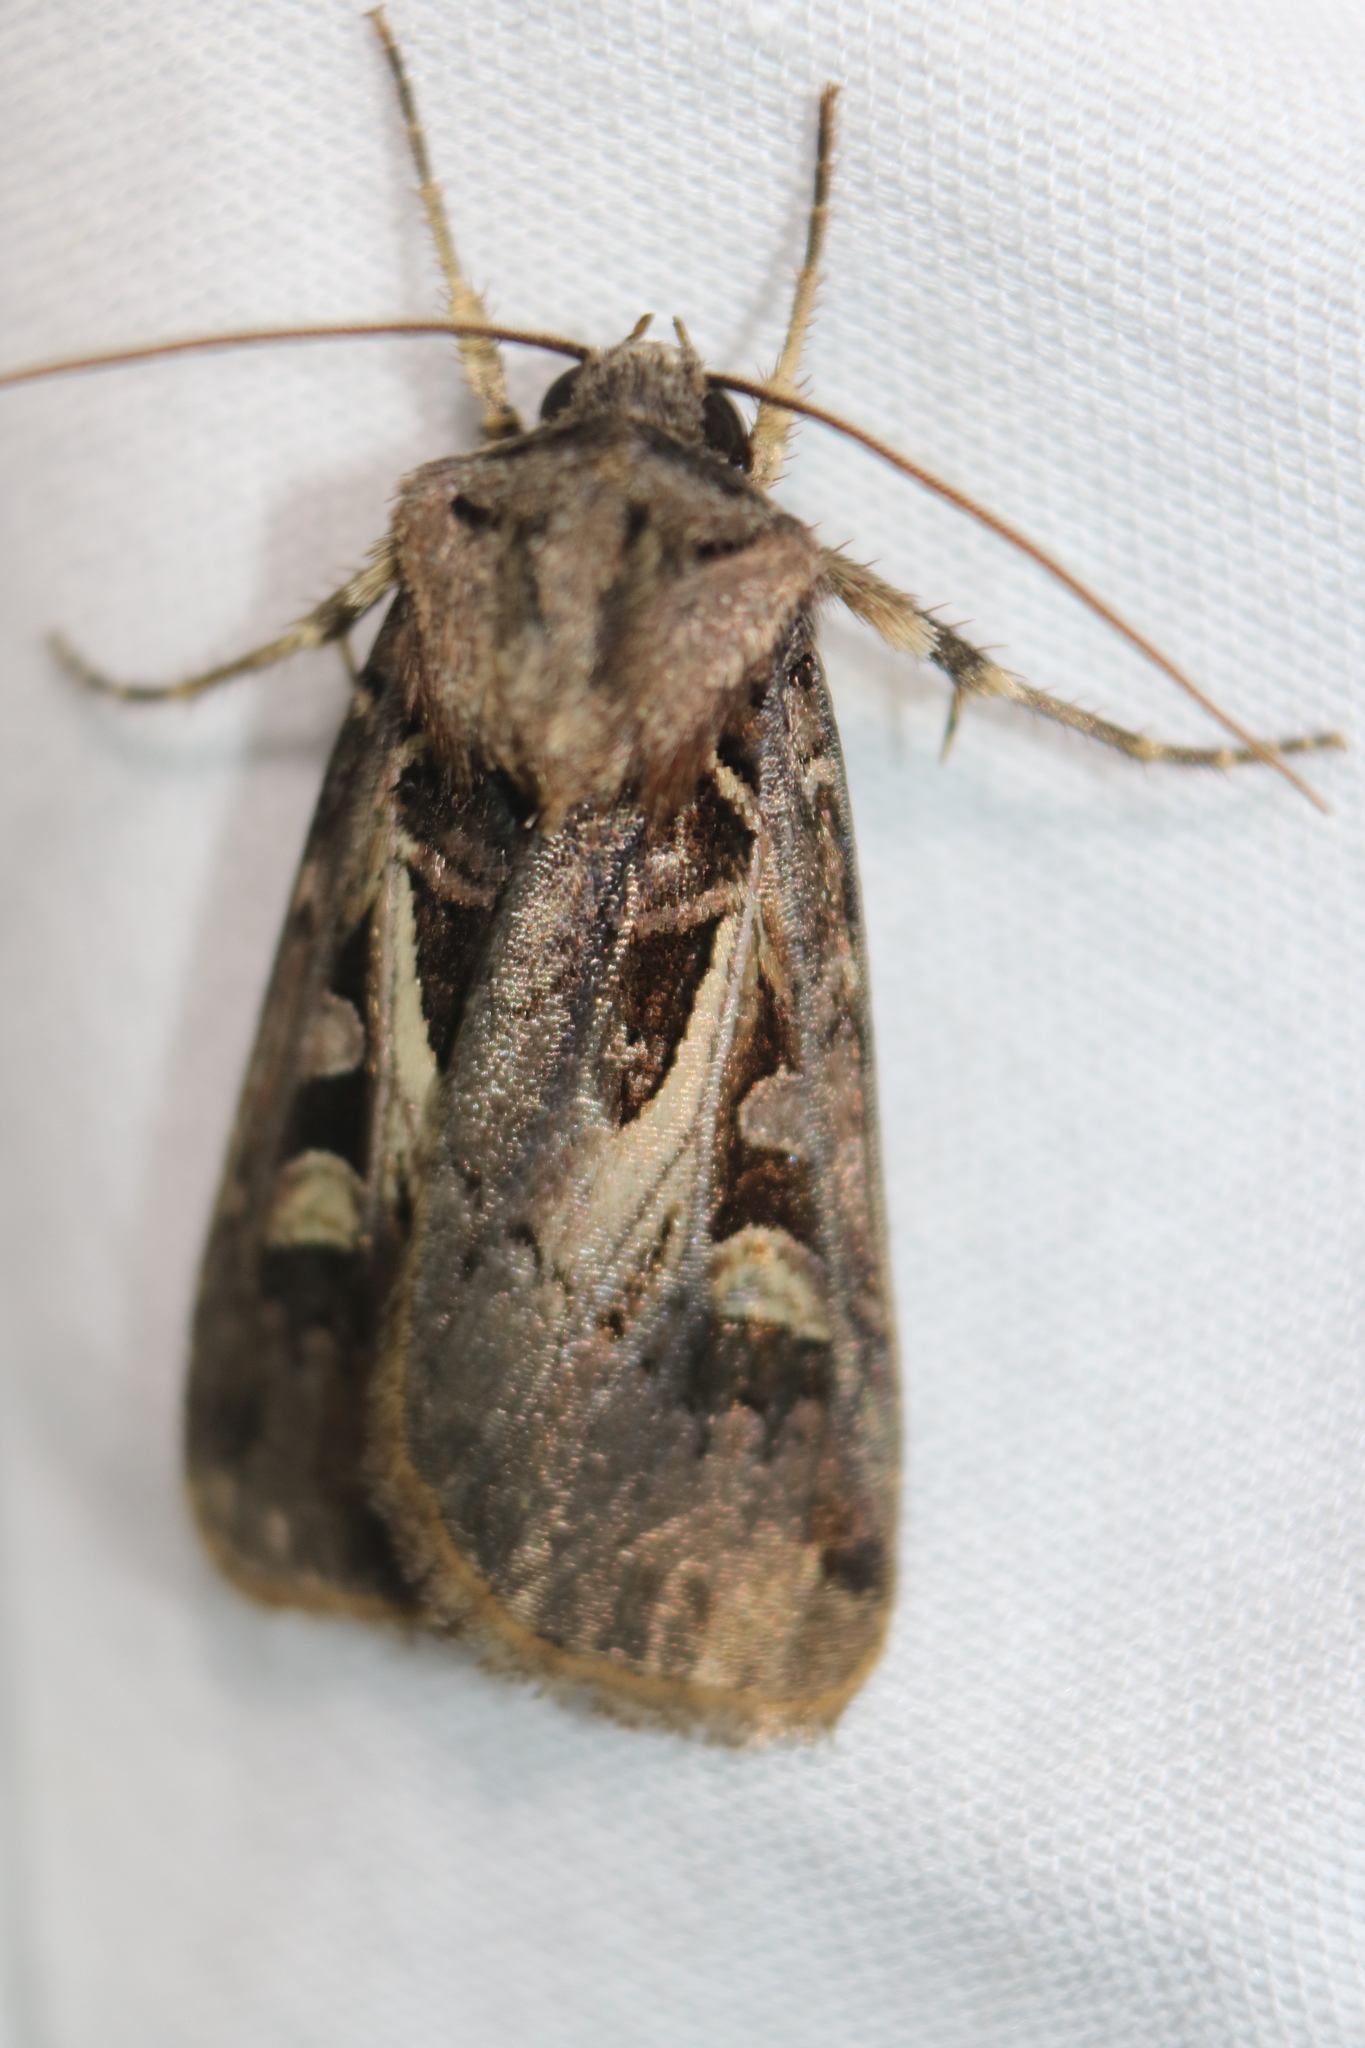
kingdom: Animalia
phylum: Arthropoda
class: Insecta
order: Lepidoptera
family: Noctuidae
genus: Feltia
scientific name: Feltia herilis
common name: Master's dart
